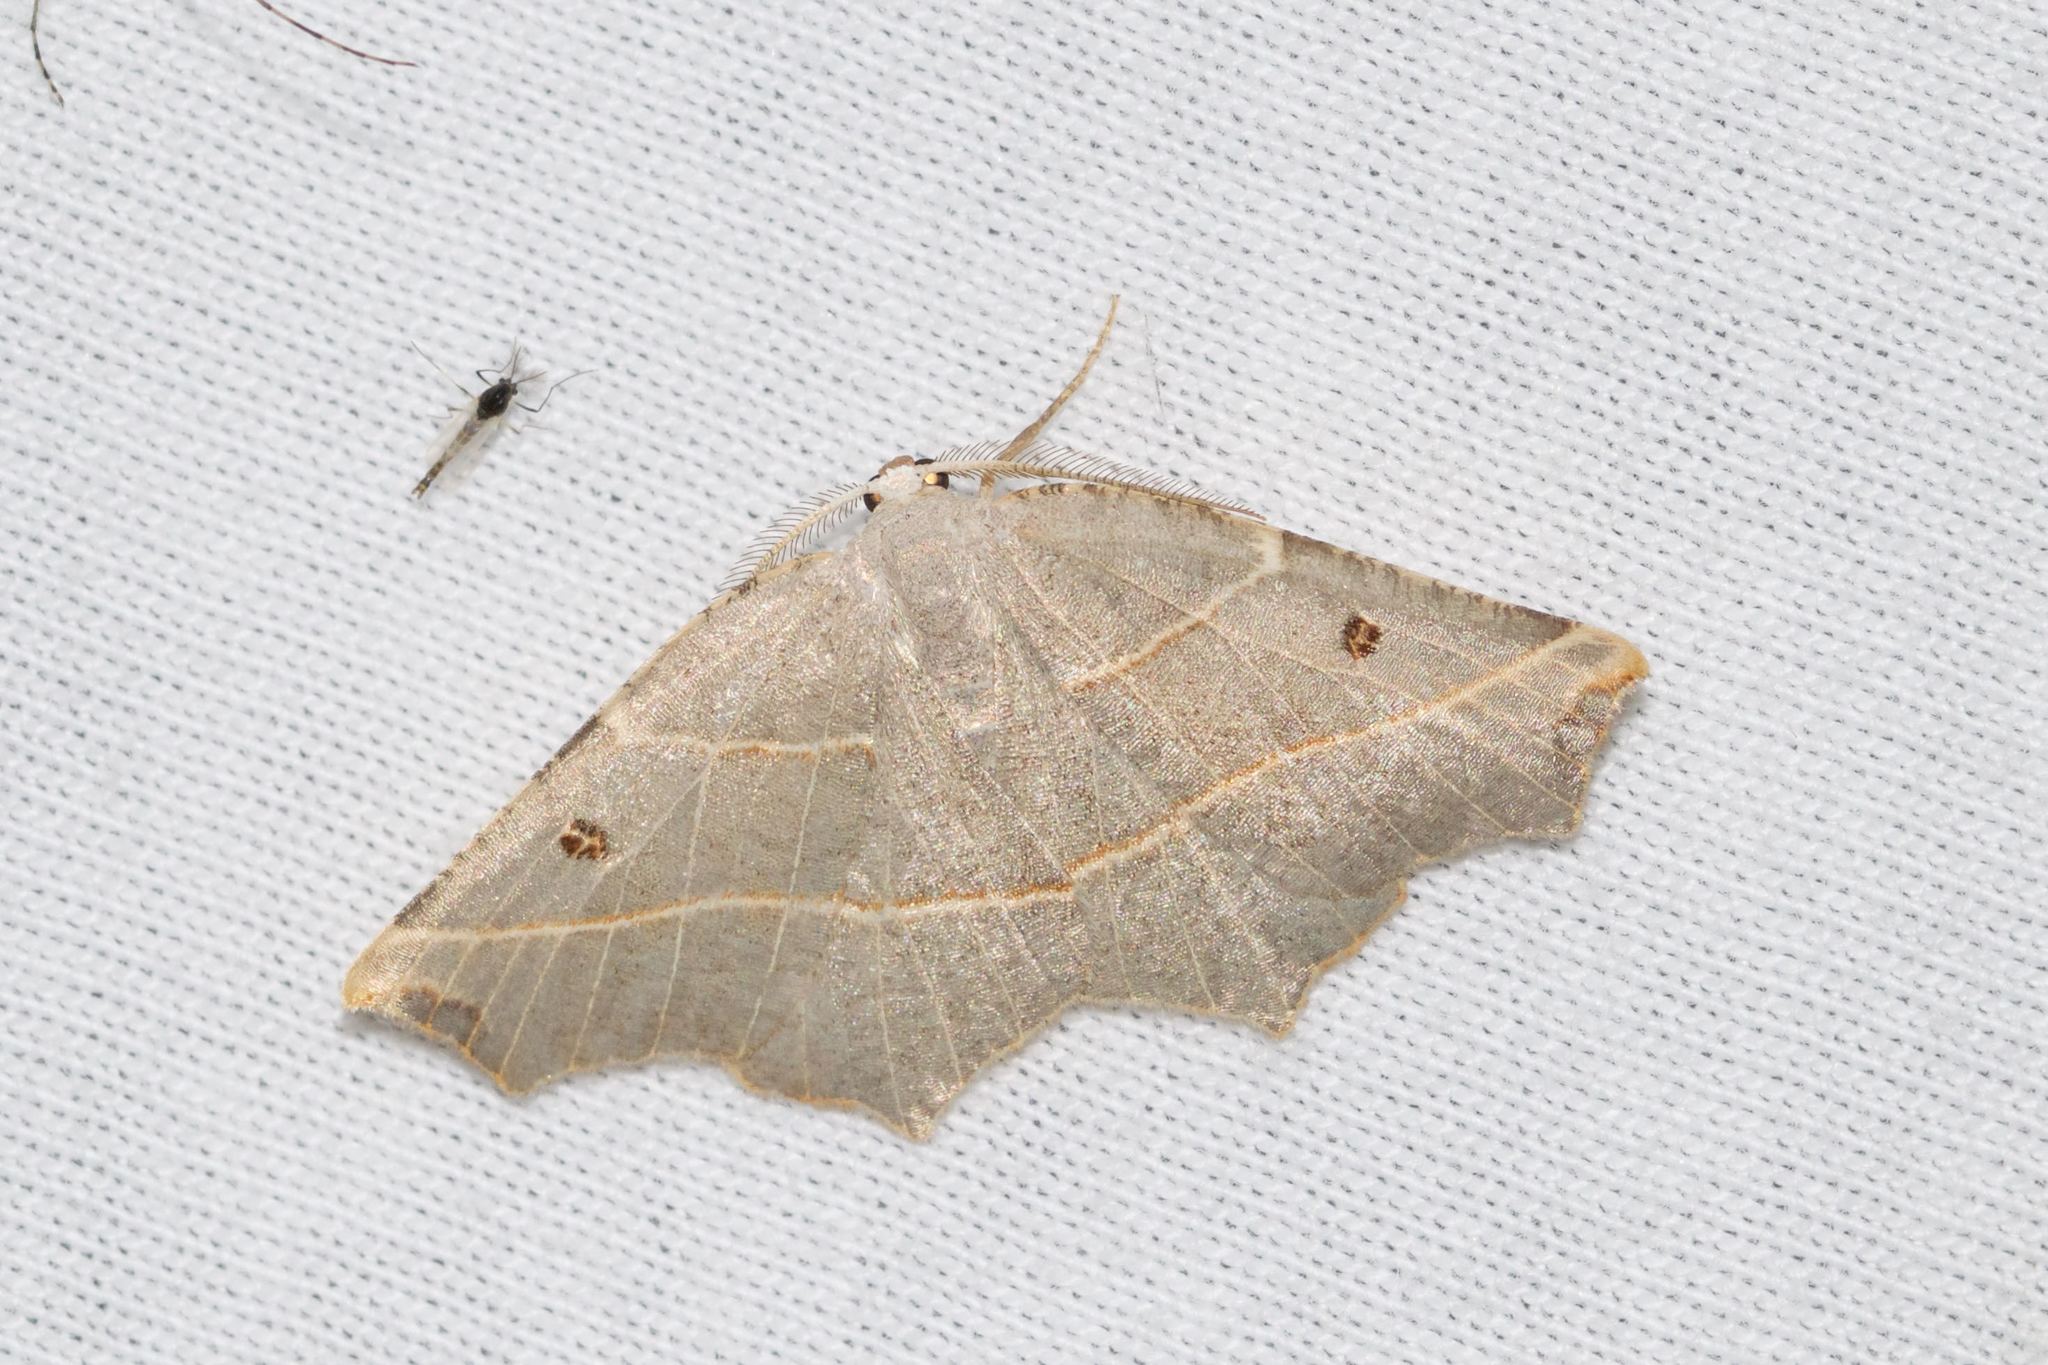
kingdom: Animalia
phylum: Arthropoda
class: Insecta
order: Lepidoptera
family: Geometridae
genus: Metanema
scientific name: Metanema inatomaria
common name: Pale metanema
